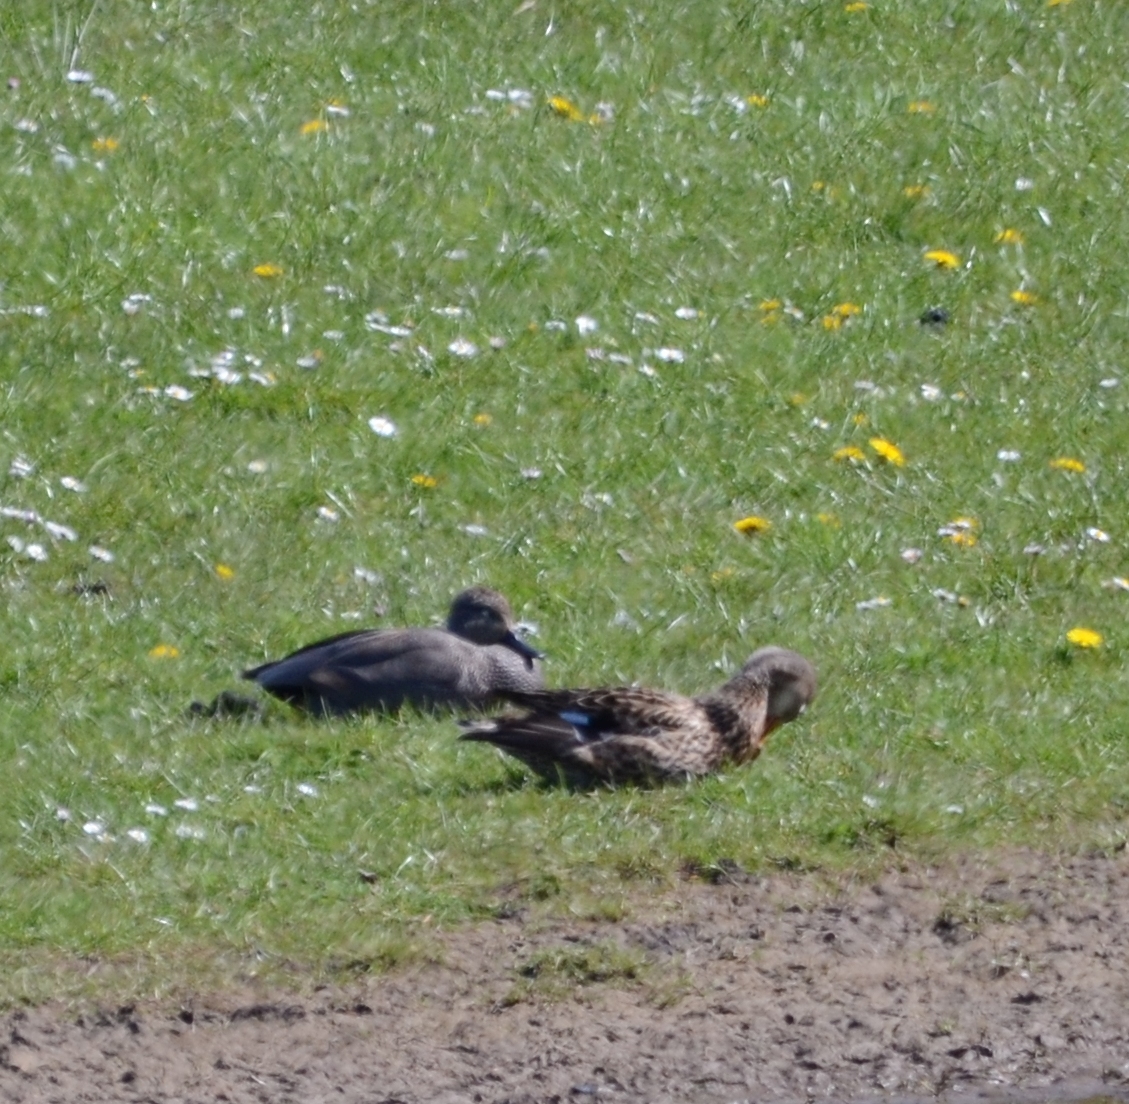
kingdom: Animalia
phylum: Chordata
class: Aves
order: Anseriformes
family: Anatidae
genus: Mareca
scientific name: Mareca strepera
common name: Gadwall
